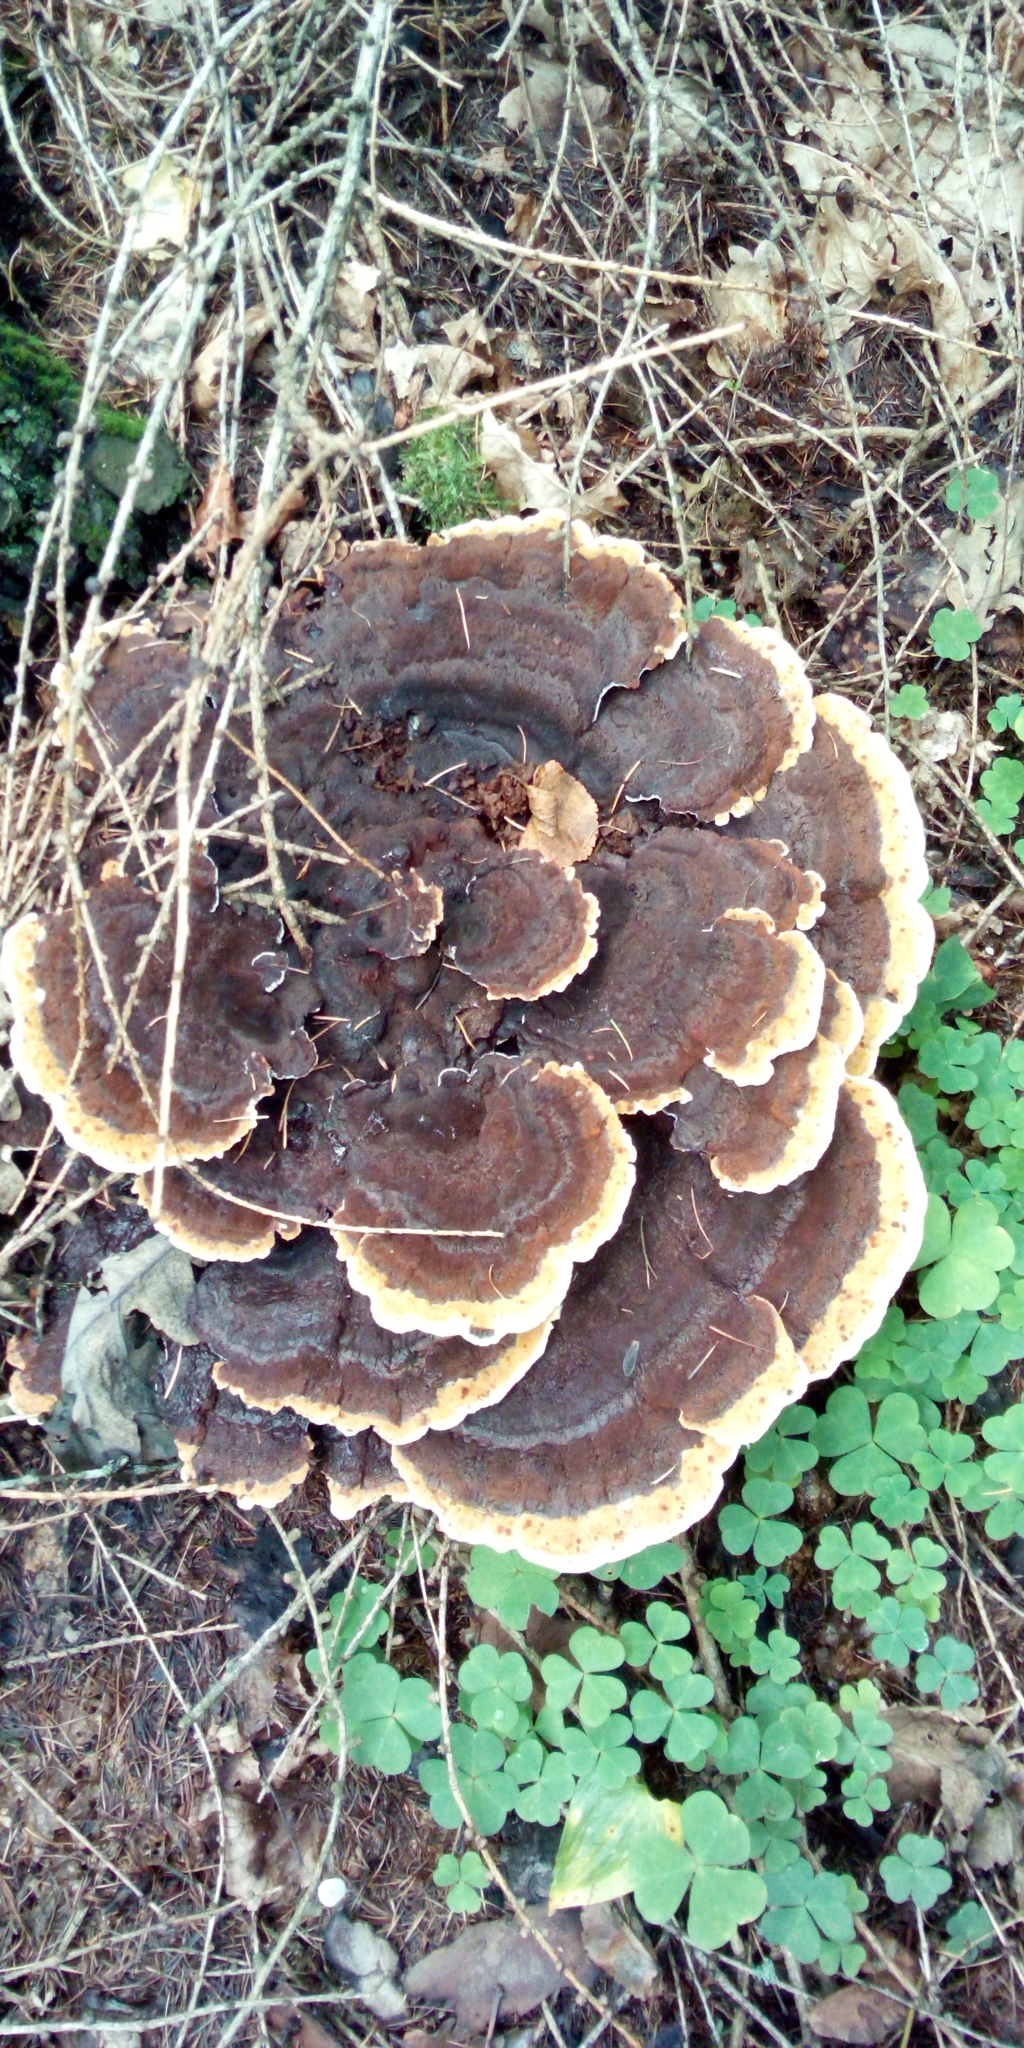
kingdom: Fungi
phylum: Basidiomycota
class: Agaricomycetes
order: Polyporales
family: Laetiporaceae
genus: Phaeolus
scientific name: Phaeolus schweinitzii
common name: Dyer's mazegill
